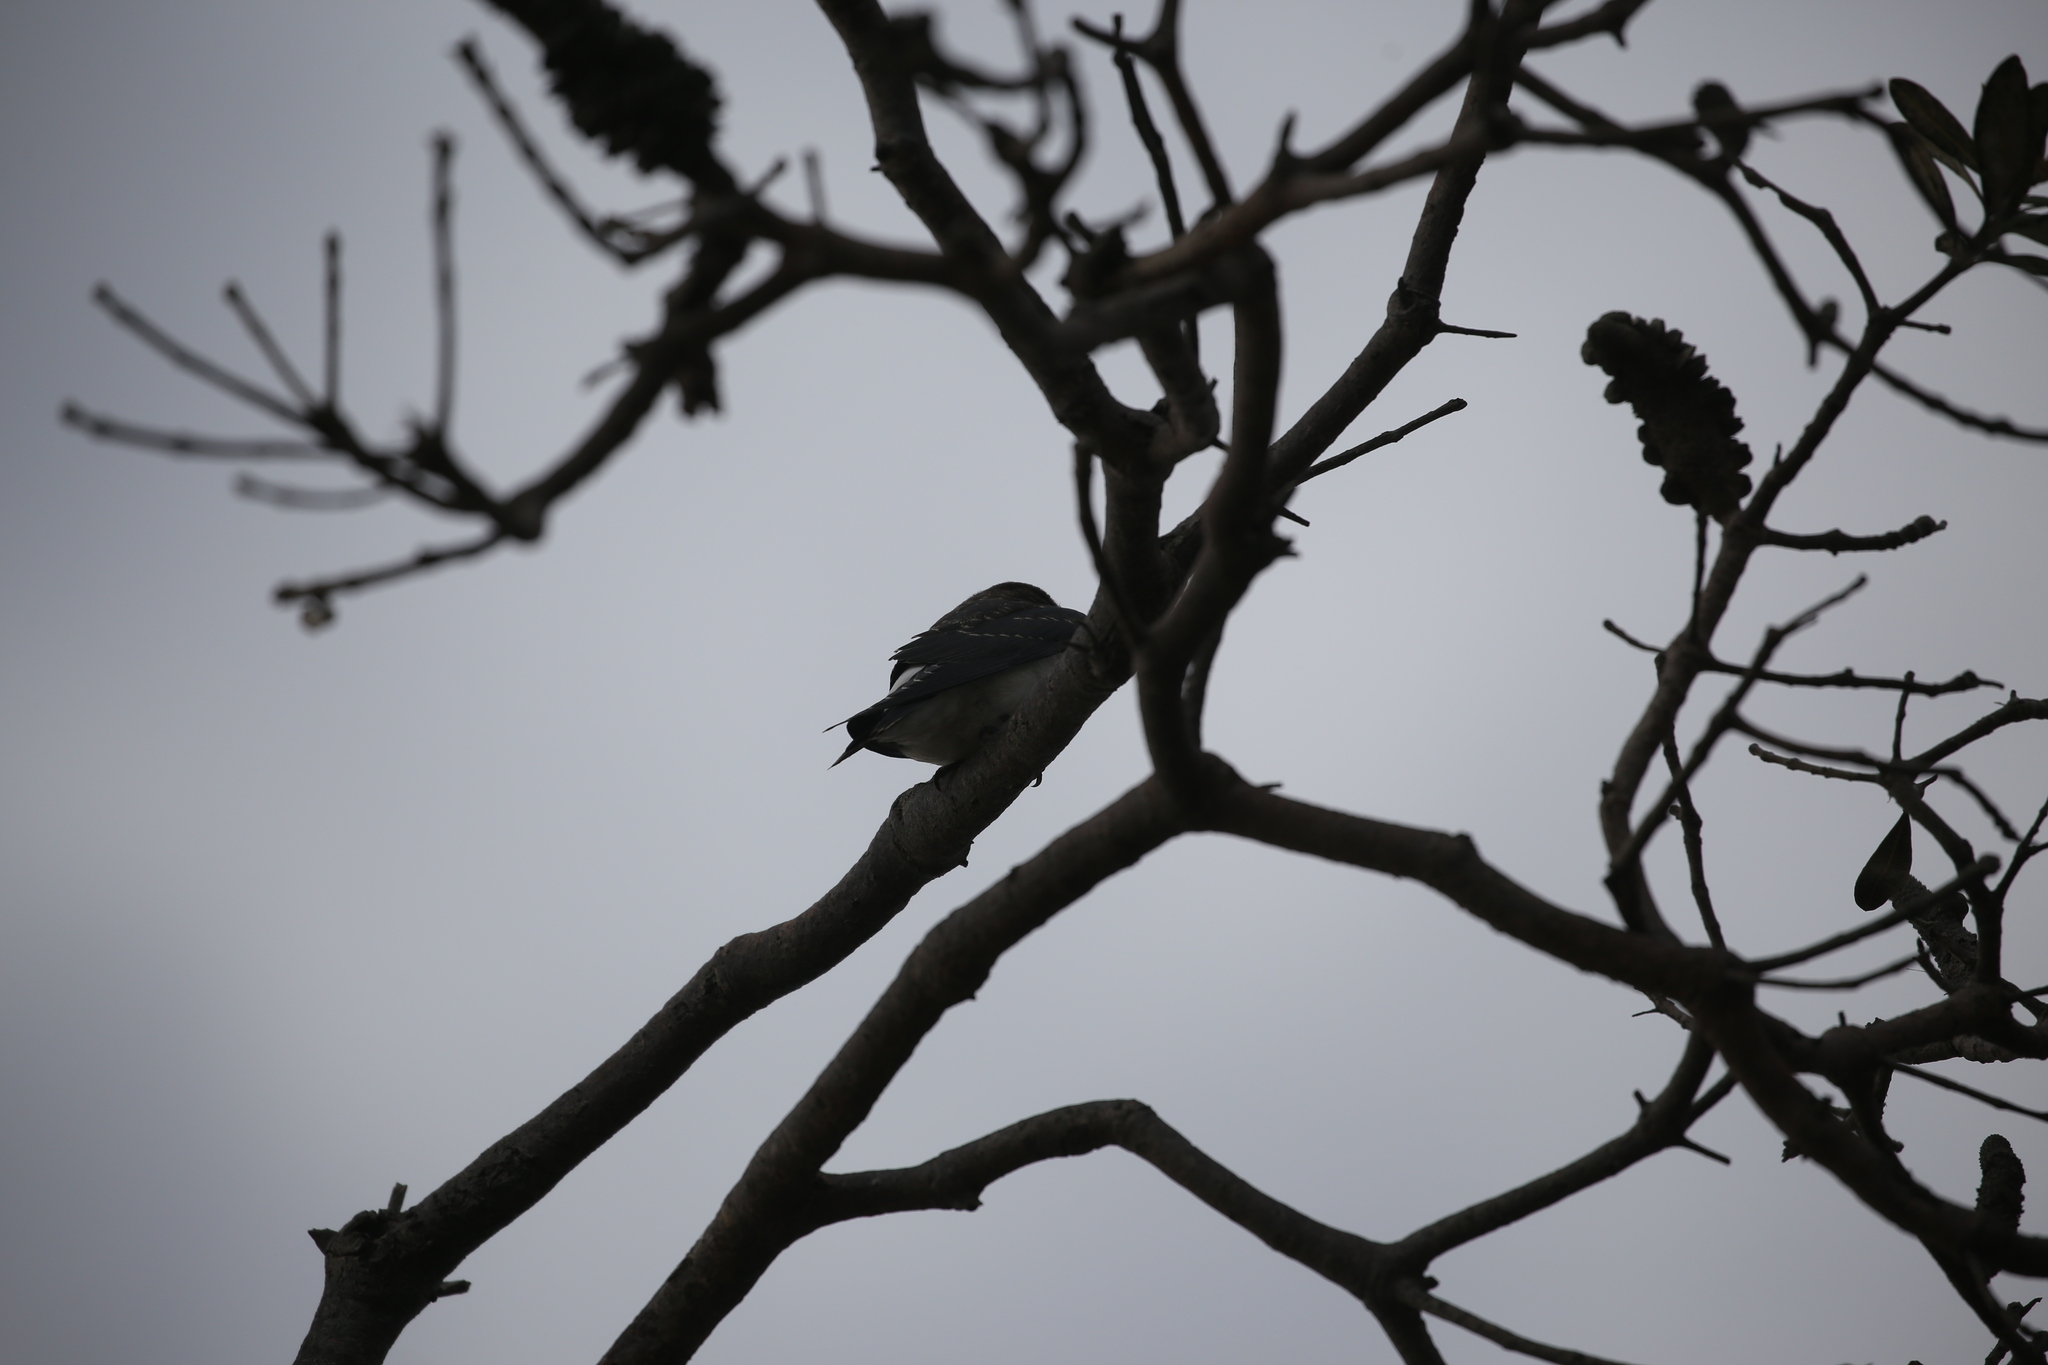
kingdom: Animalia
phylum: Chordata
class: Aves
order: Passeriformes
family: Artamidae
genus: Artamus
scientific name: Artamus leucoryn
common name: White-breasted woodswallow
